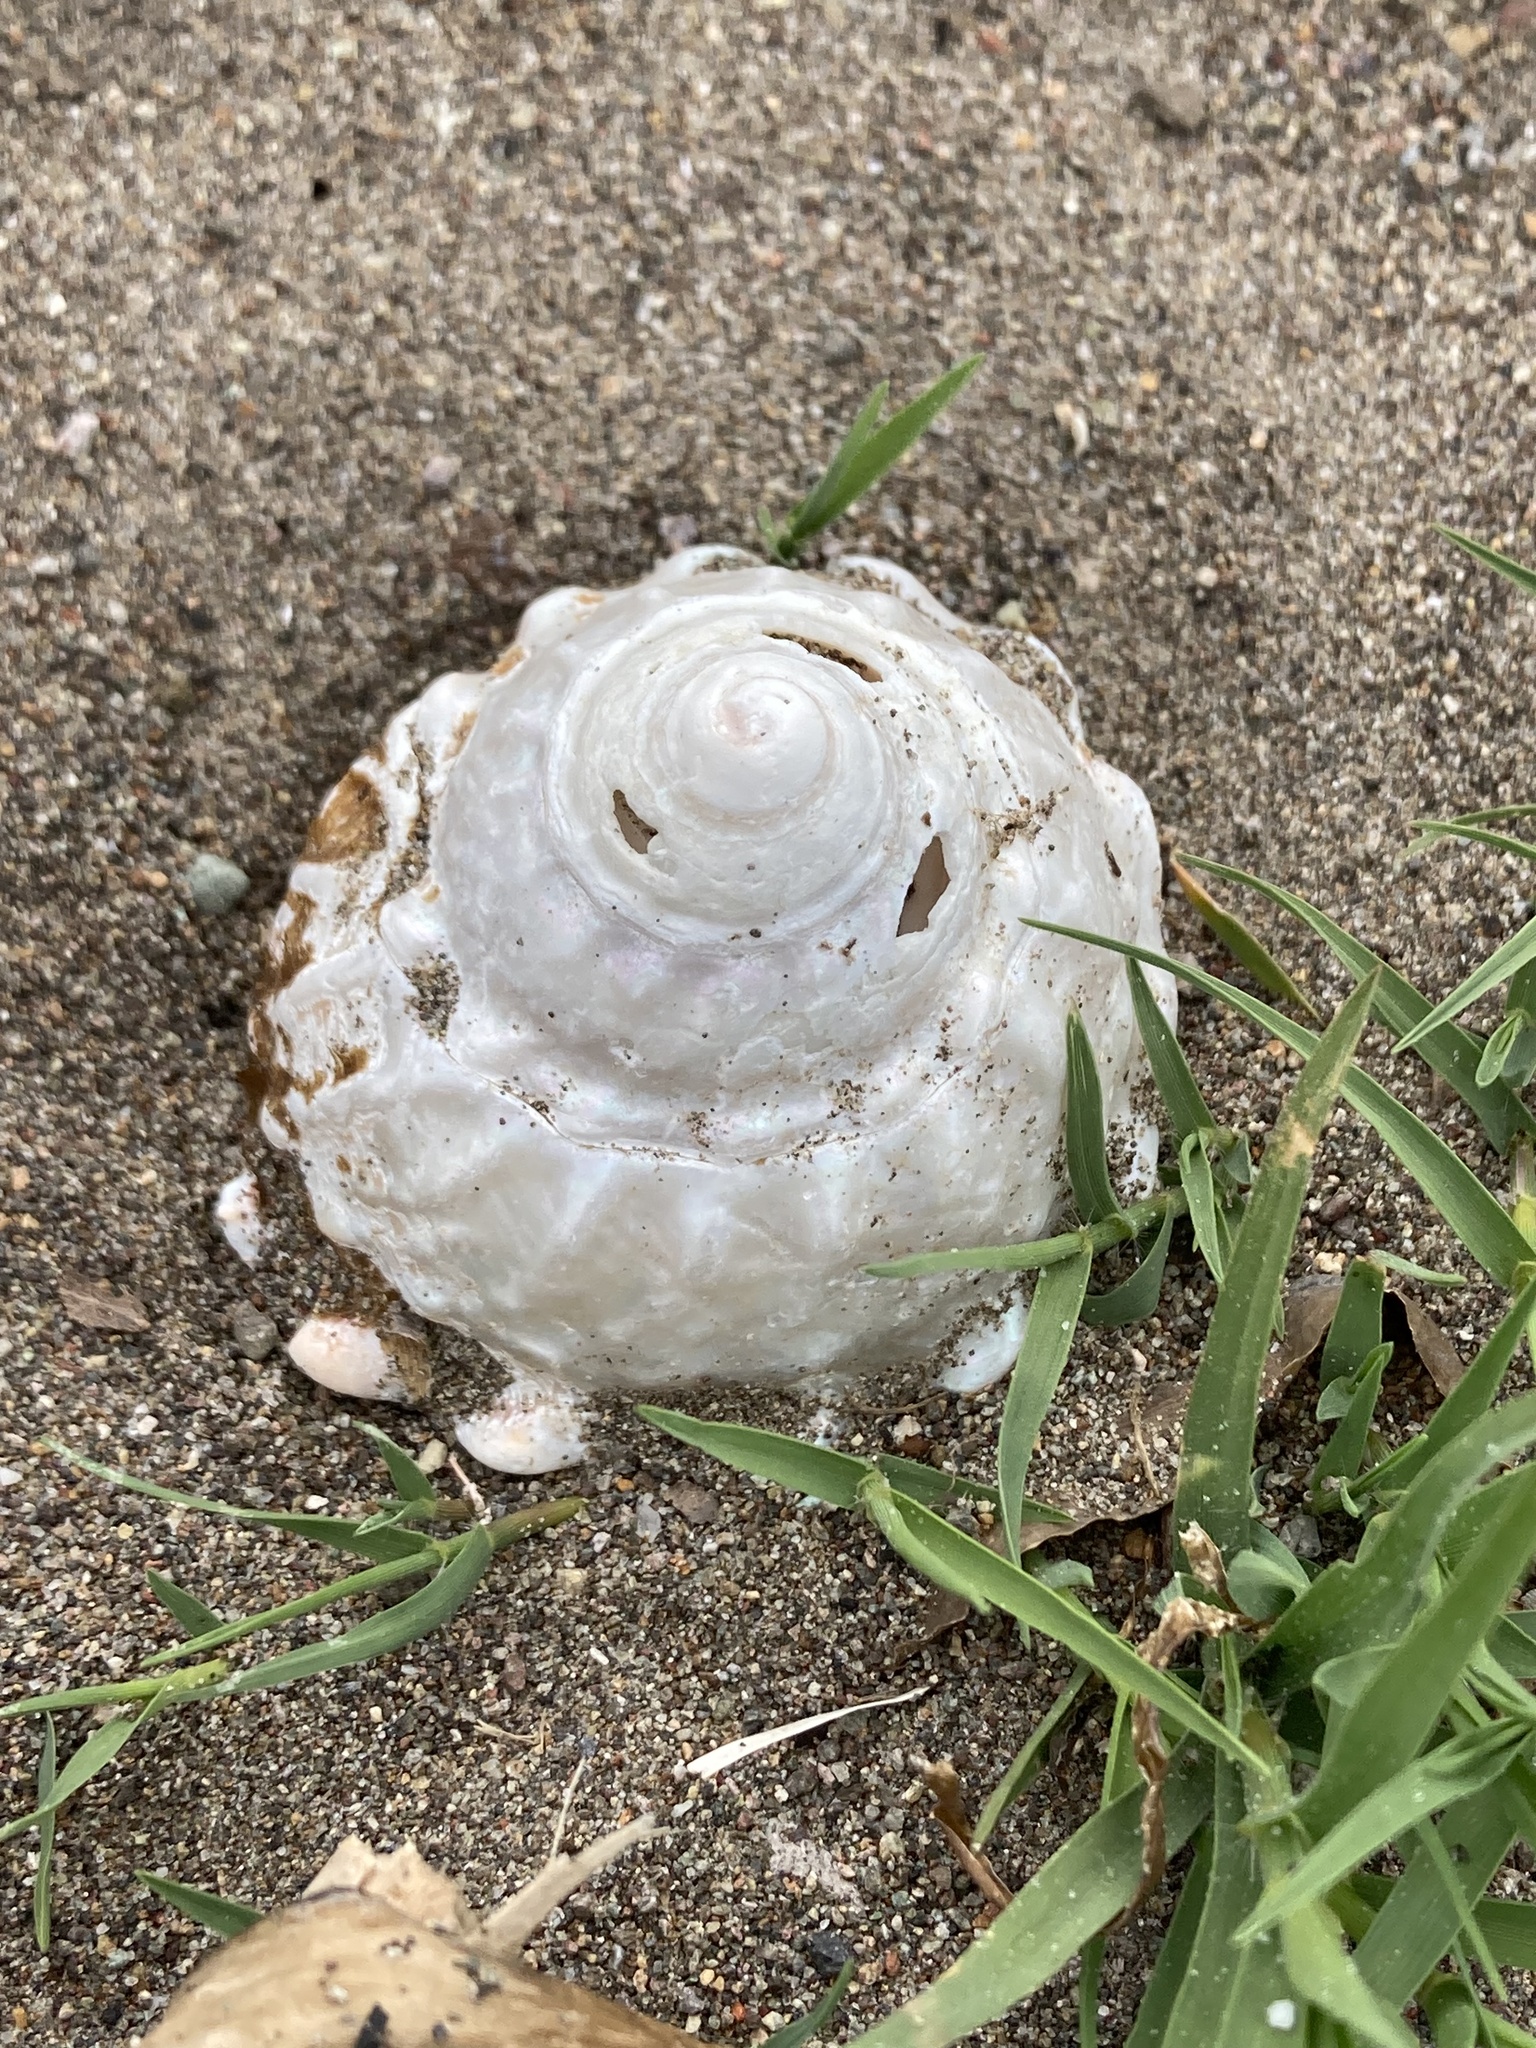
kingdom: Animalia
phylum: Mollusca
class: Gastropoda
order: Trochida
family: Turbinidae
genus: Megastraea
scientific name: Megastraea undosa
